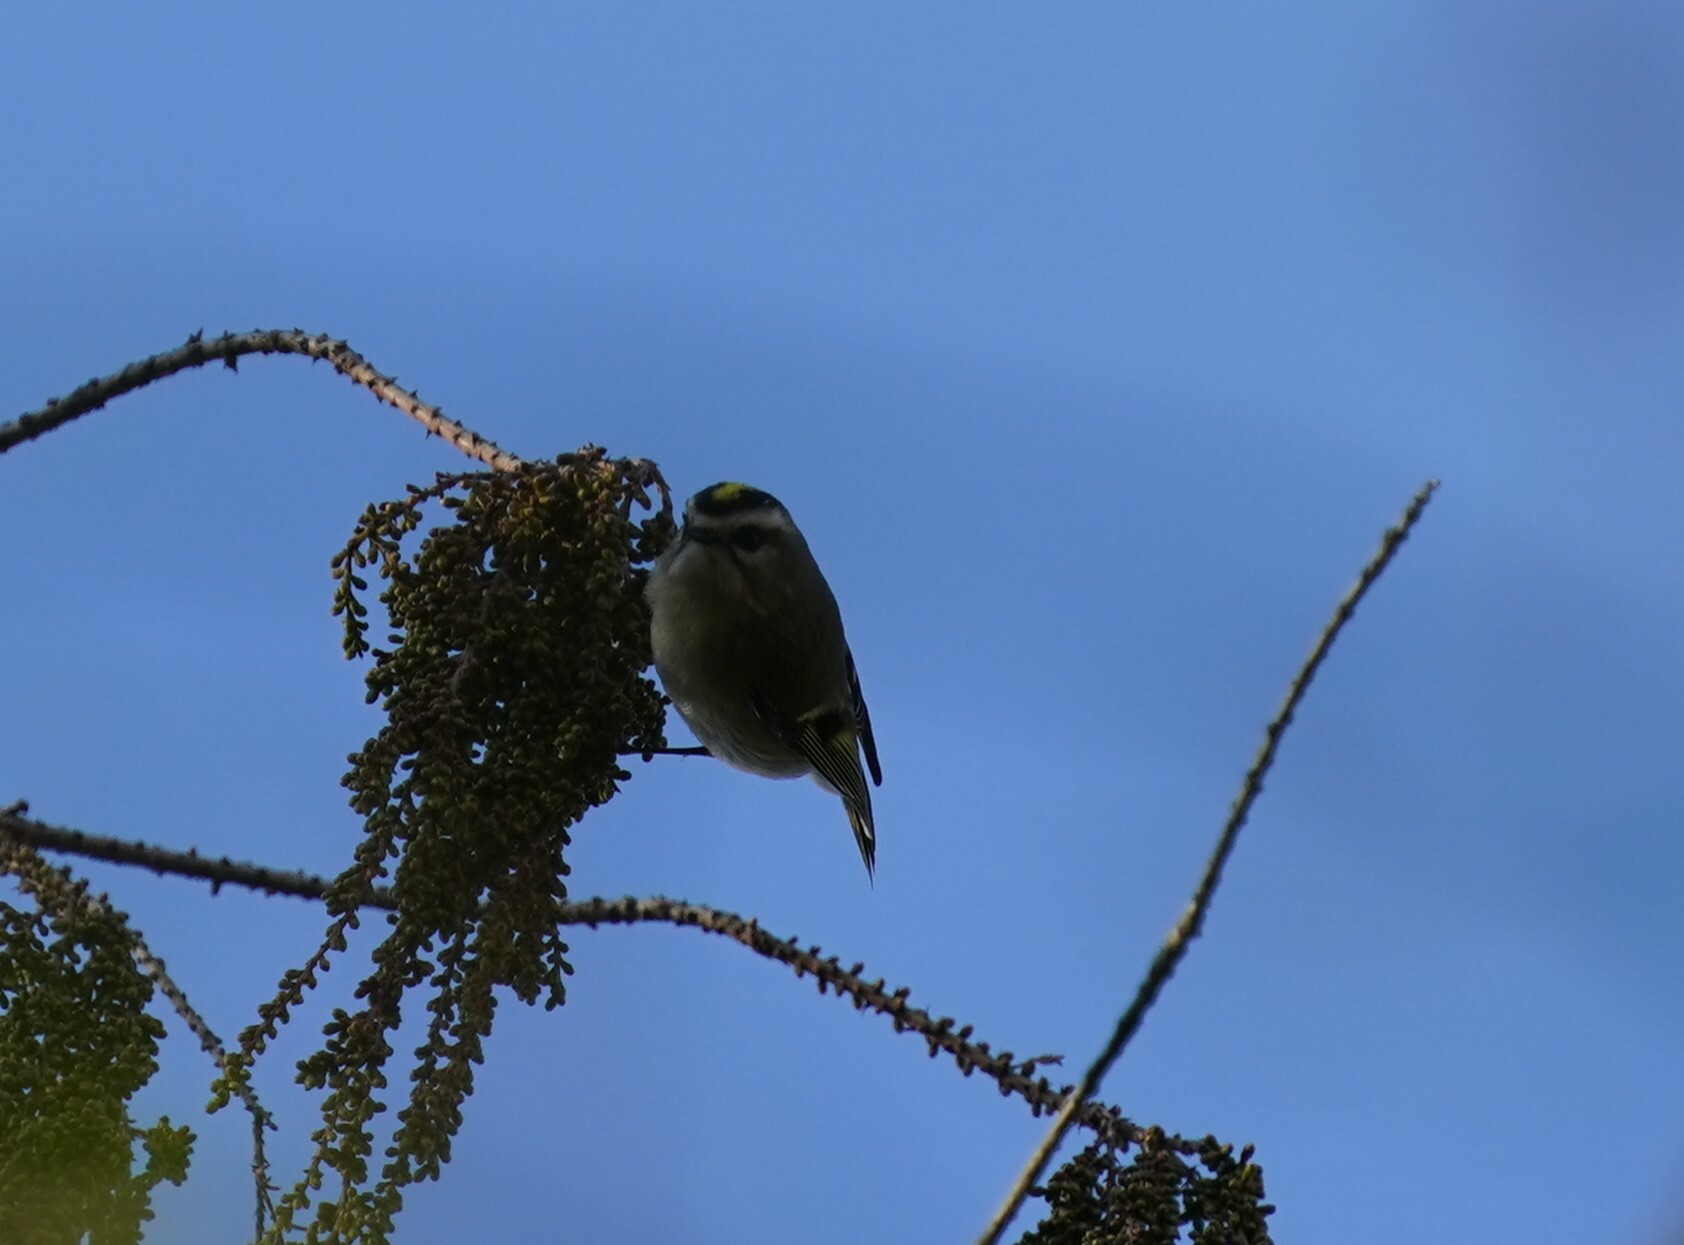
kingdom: Animalia
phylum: Chordata
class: Aves
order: Passeriformes
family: Regulidae
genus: Regulus
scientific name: Regulus satrapa
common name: Golden-crowned kinglet
